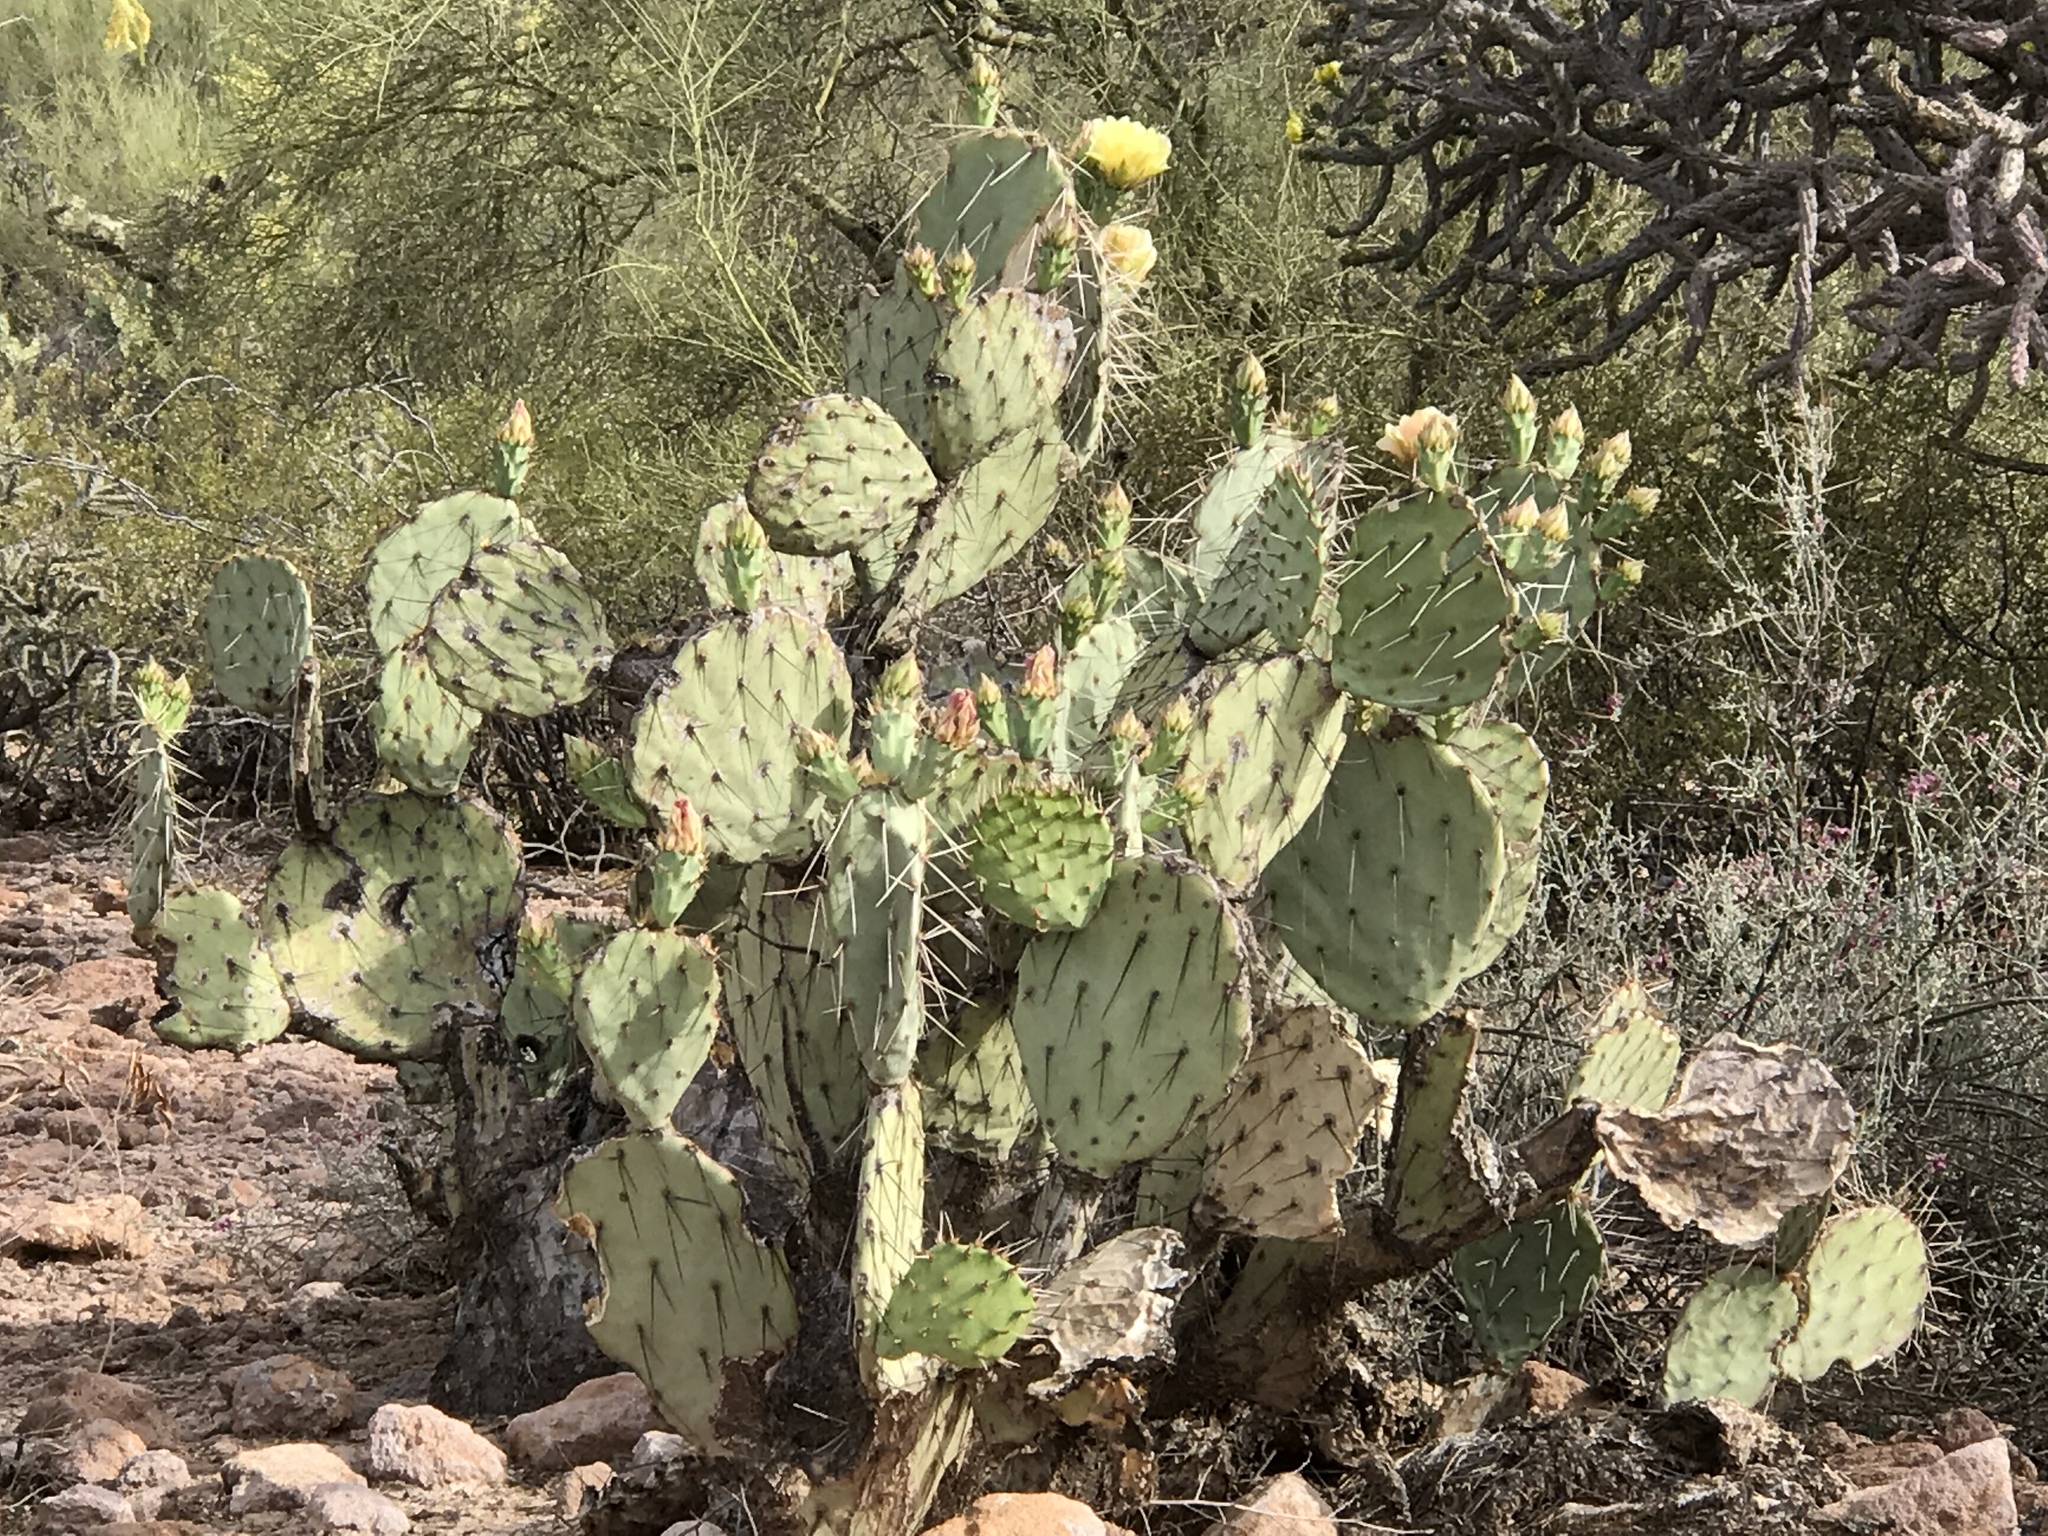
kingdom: Plantae
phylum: Tracheophyta
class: Magnoliopsida
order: Caryophyllales
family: Cactaceae
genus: Opuntia
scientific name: Opuntia engelmannii
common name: Cactus-apple
